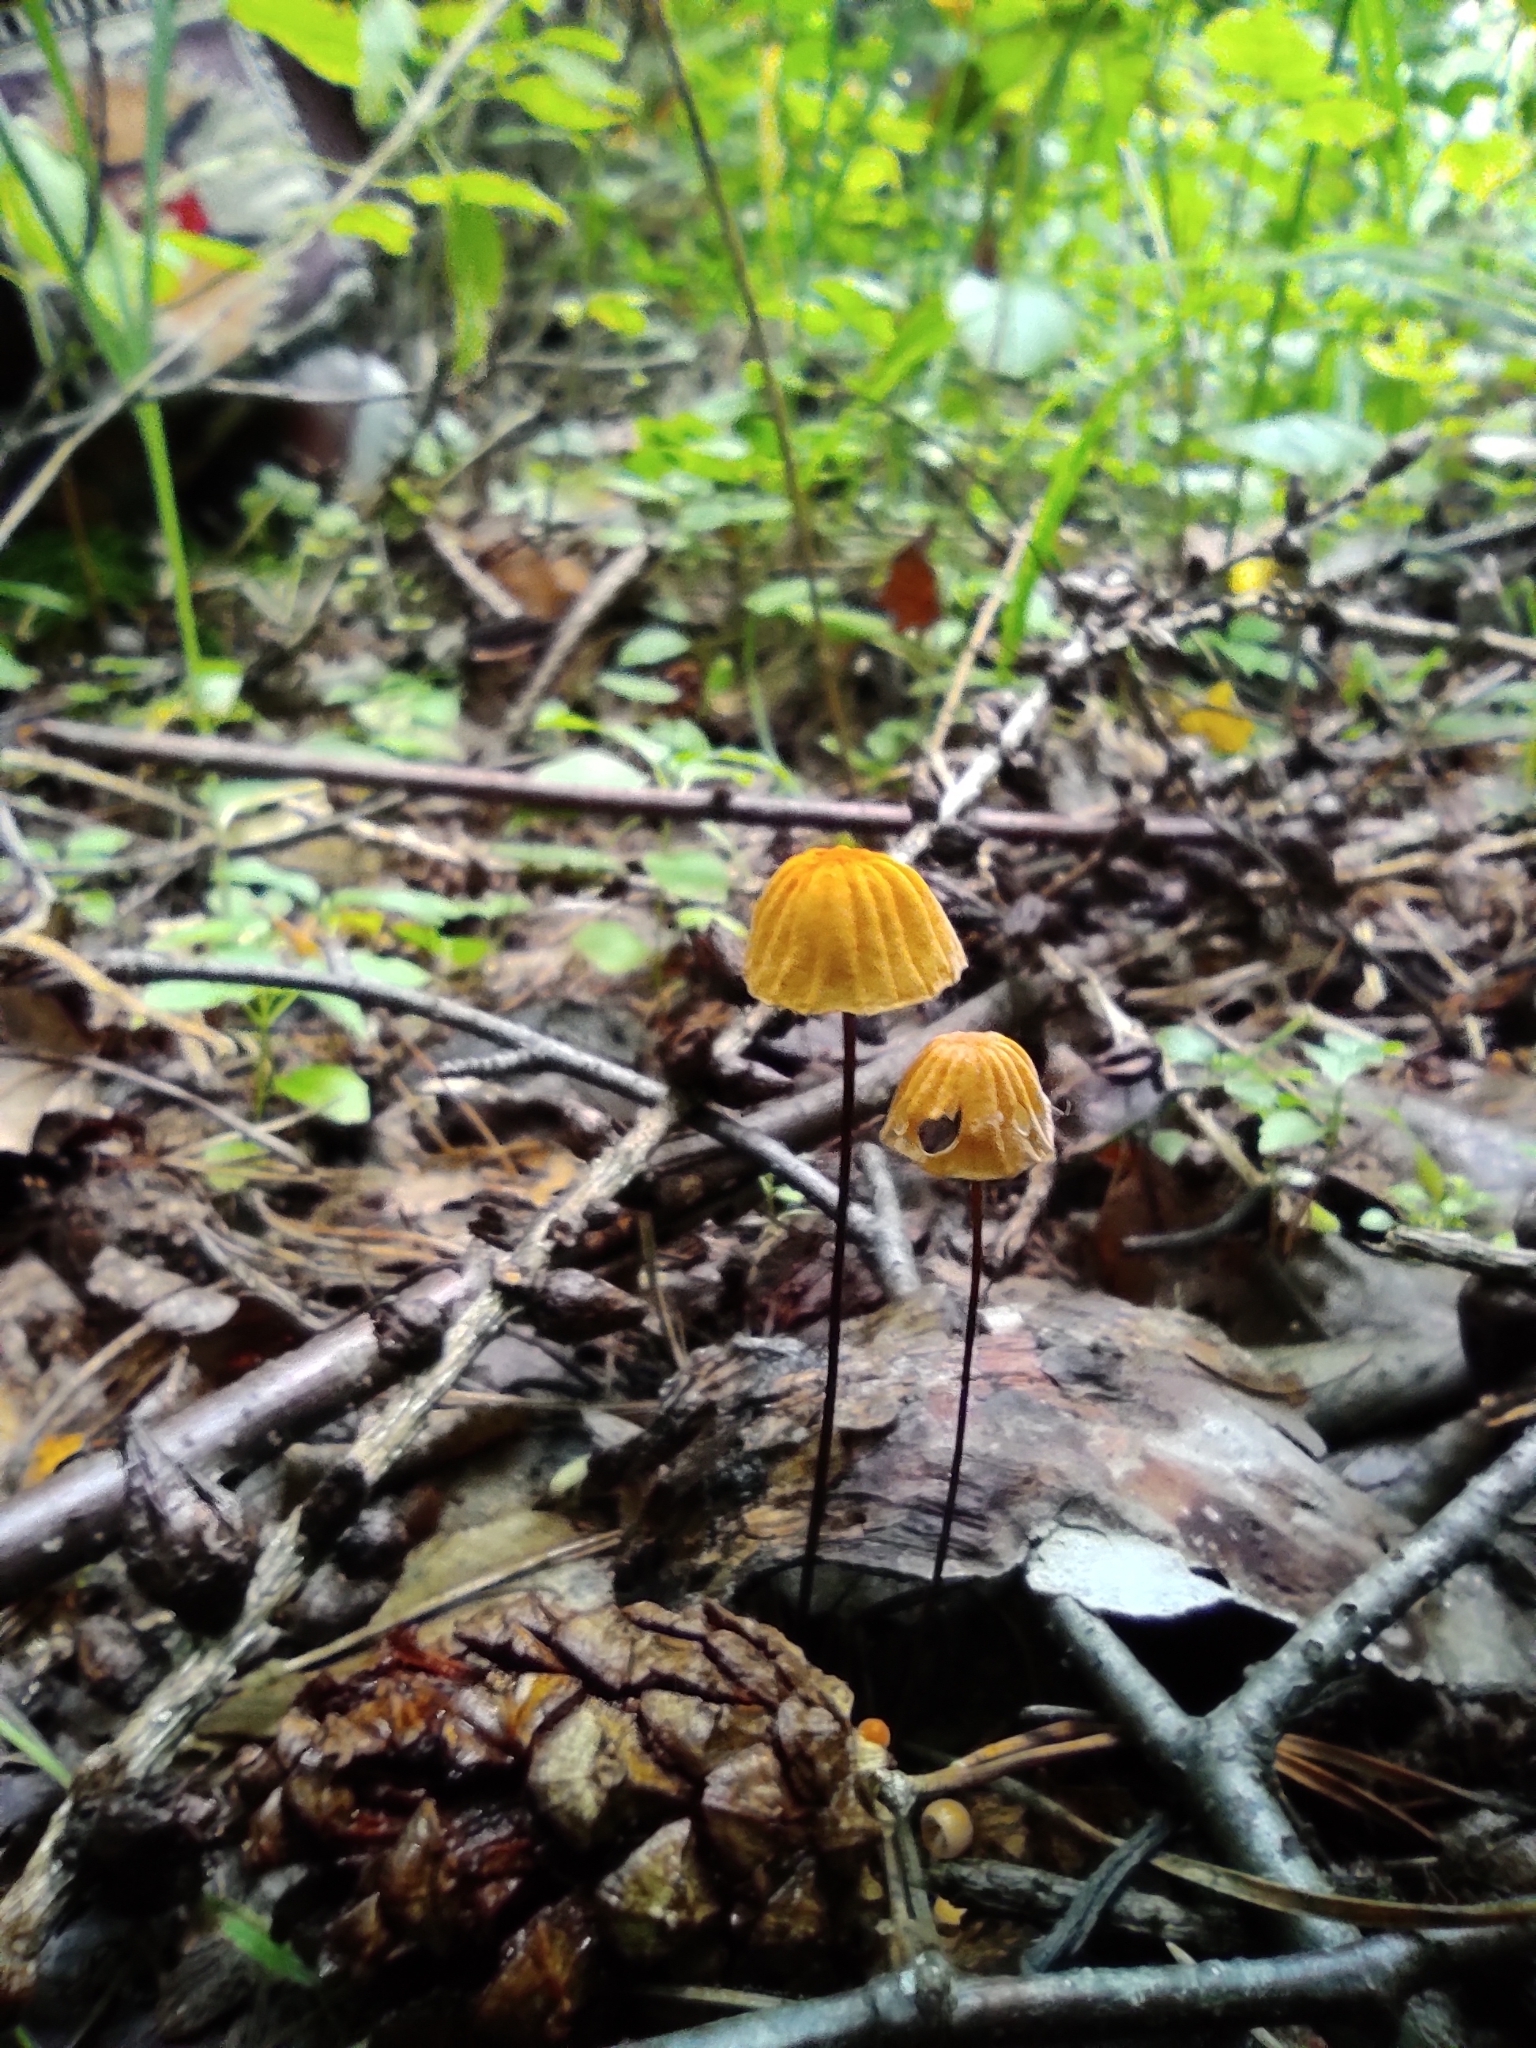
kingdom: Fungi
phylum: Basidiomycota
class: Agaricomycetes
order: Agaricales
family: Marasmiaceae
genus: Marasmius
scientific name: Marasmius siccus
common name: Orange pinwheel
